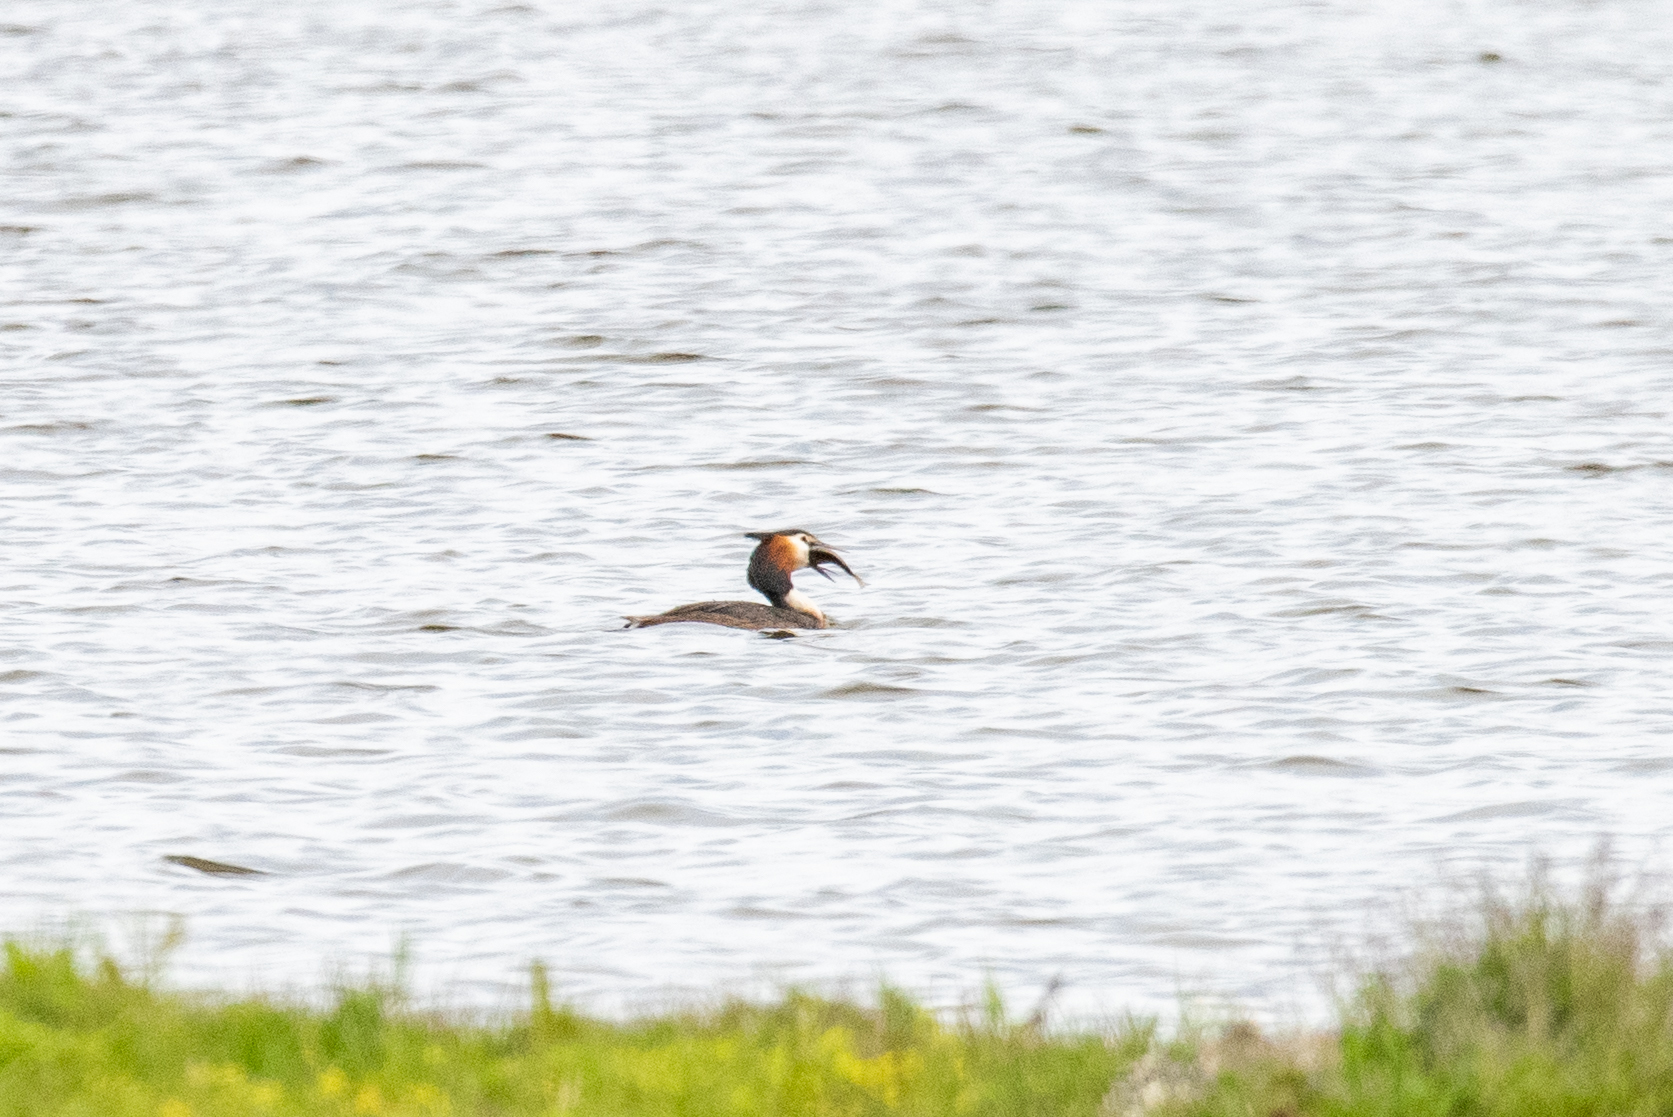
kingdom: Animalia
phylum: Chordata
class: Aves
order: Podicipediformes
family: Podicipedidae
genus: Podiceps
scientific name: Podiceps cristatus
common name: Great crested grebe
